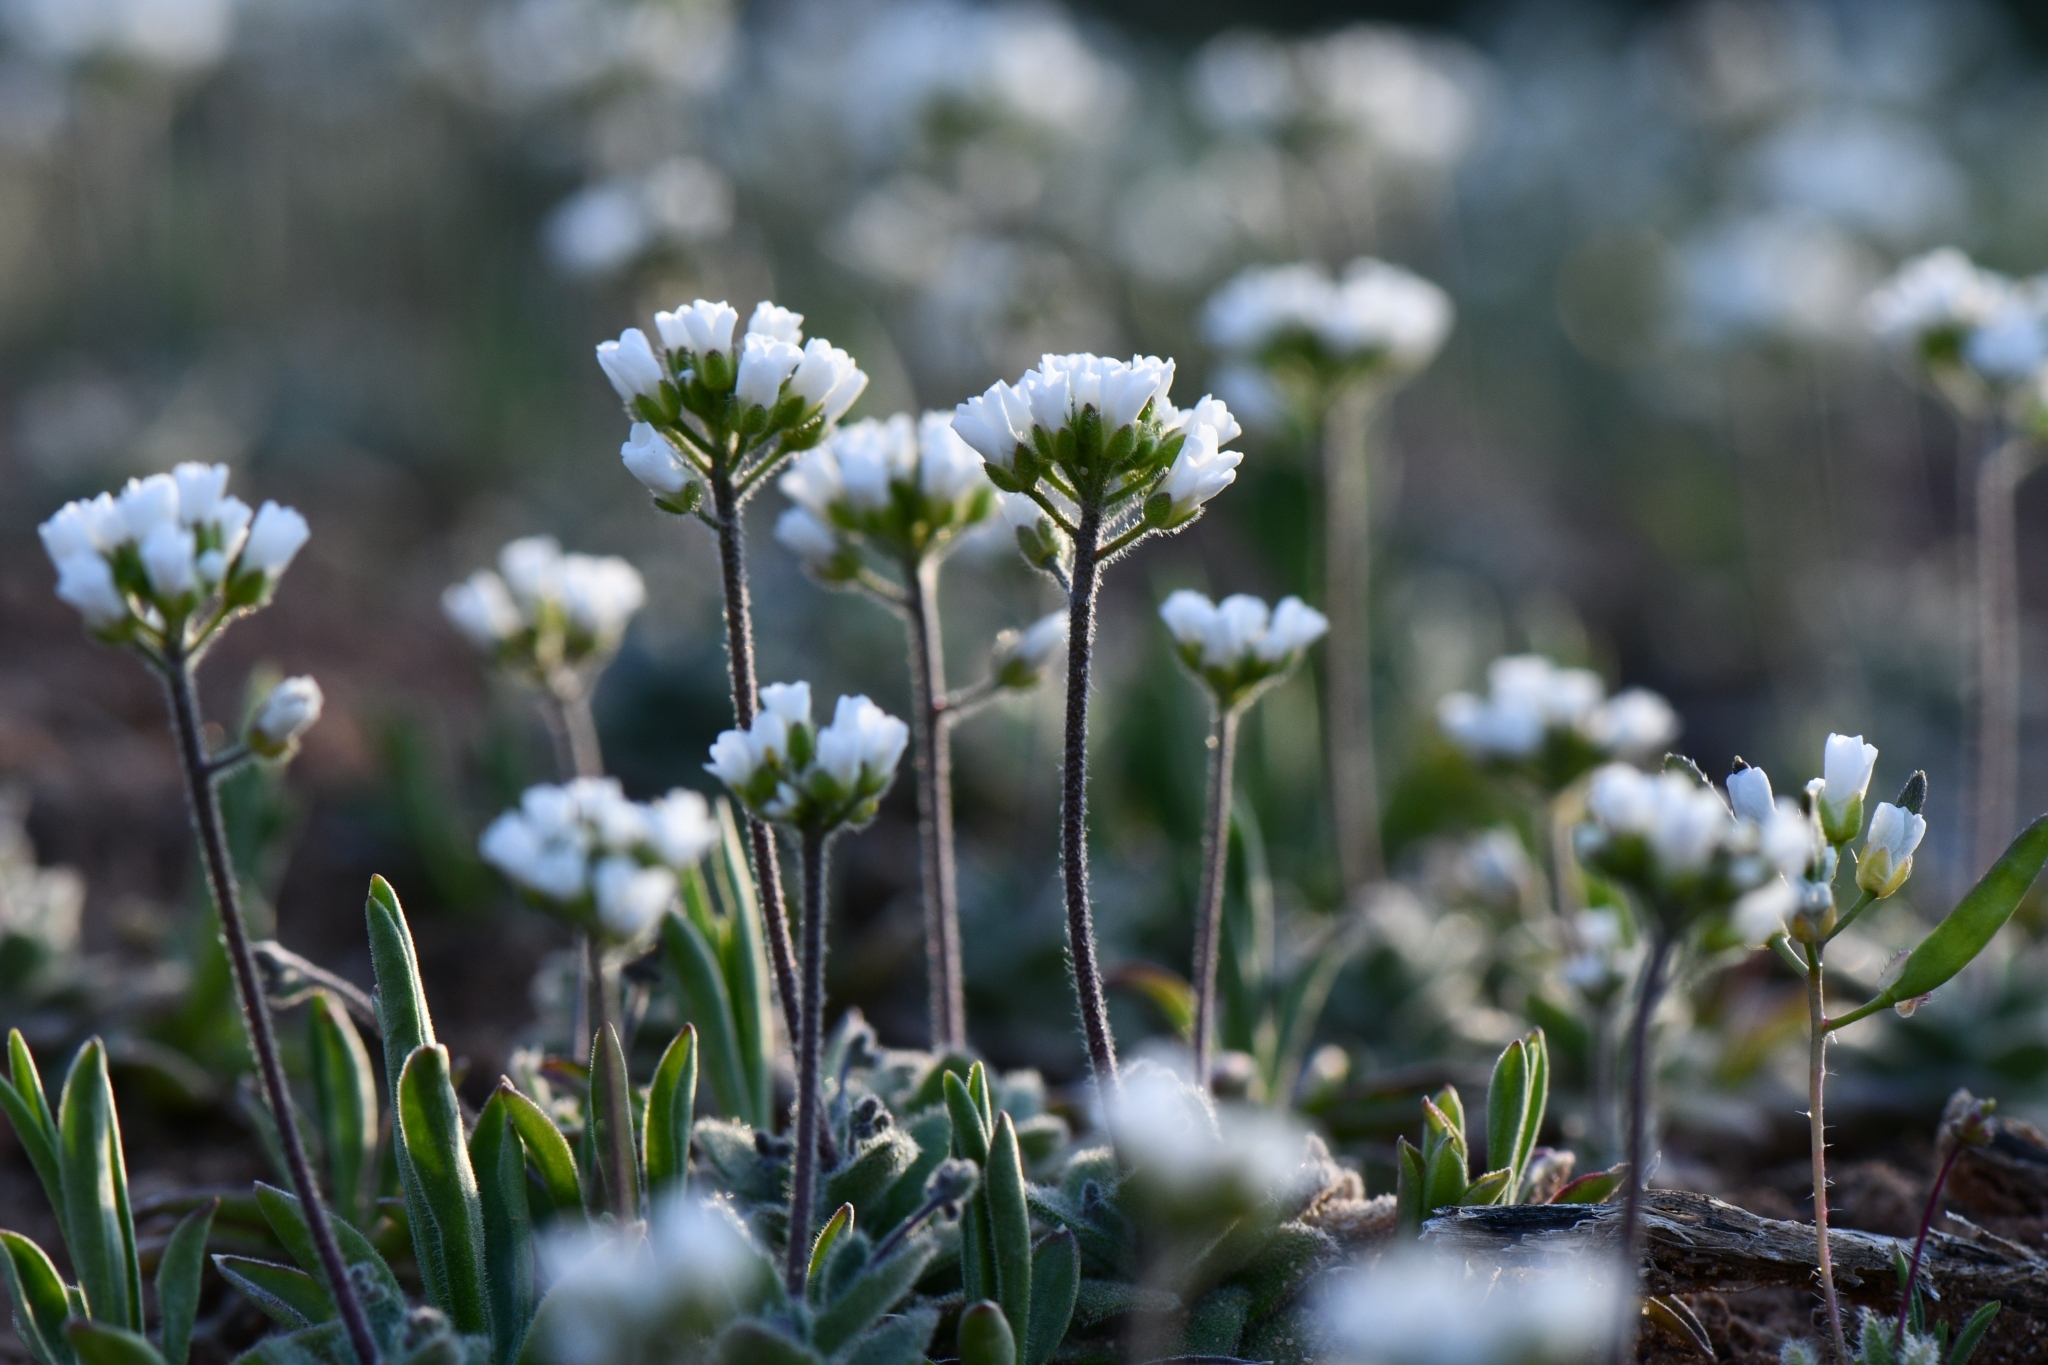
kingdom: Plantae
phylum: Tracheophyta
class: Magnoliopsida
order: Brassicales
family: Brassicaceae
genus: Tomostima
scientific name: Tomostima cuneifolia
